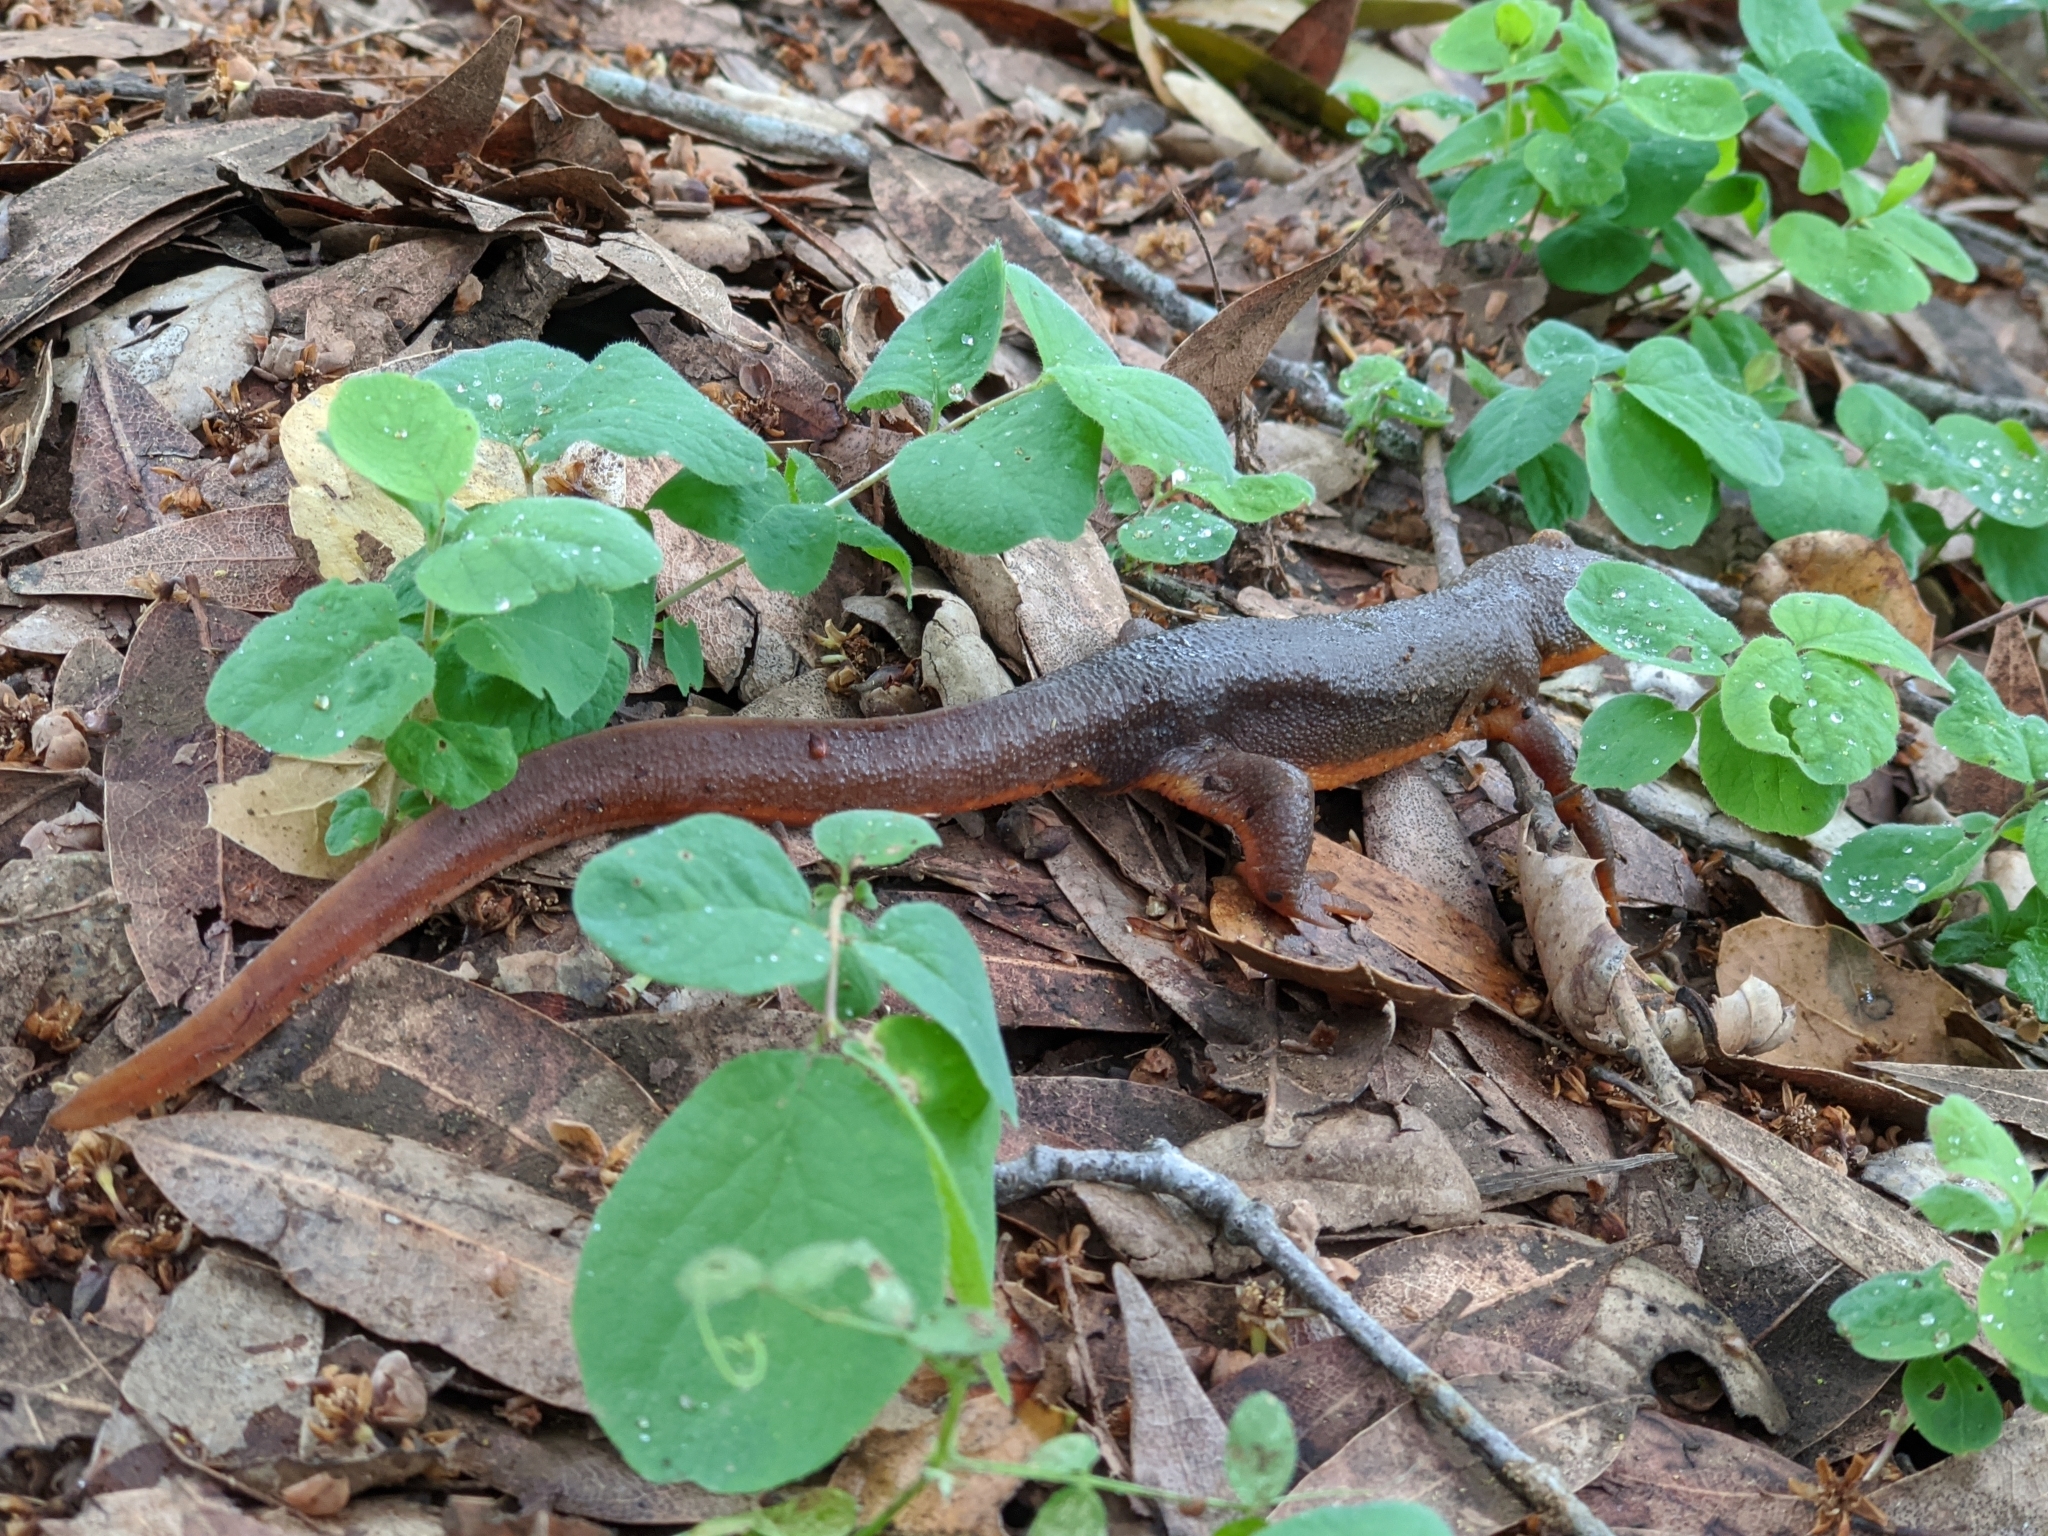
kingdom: Animalia
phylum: Chordata
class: Amphibia
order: Caudata
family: Salamandridae
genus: Taricha
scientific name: Taricha torosa
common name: California newt
